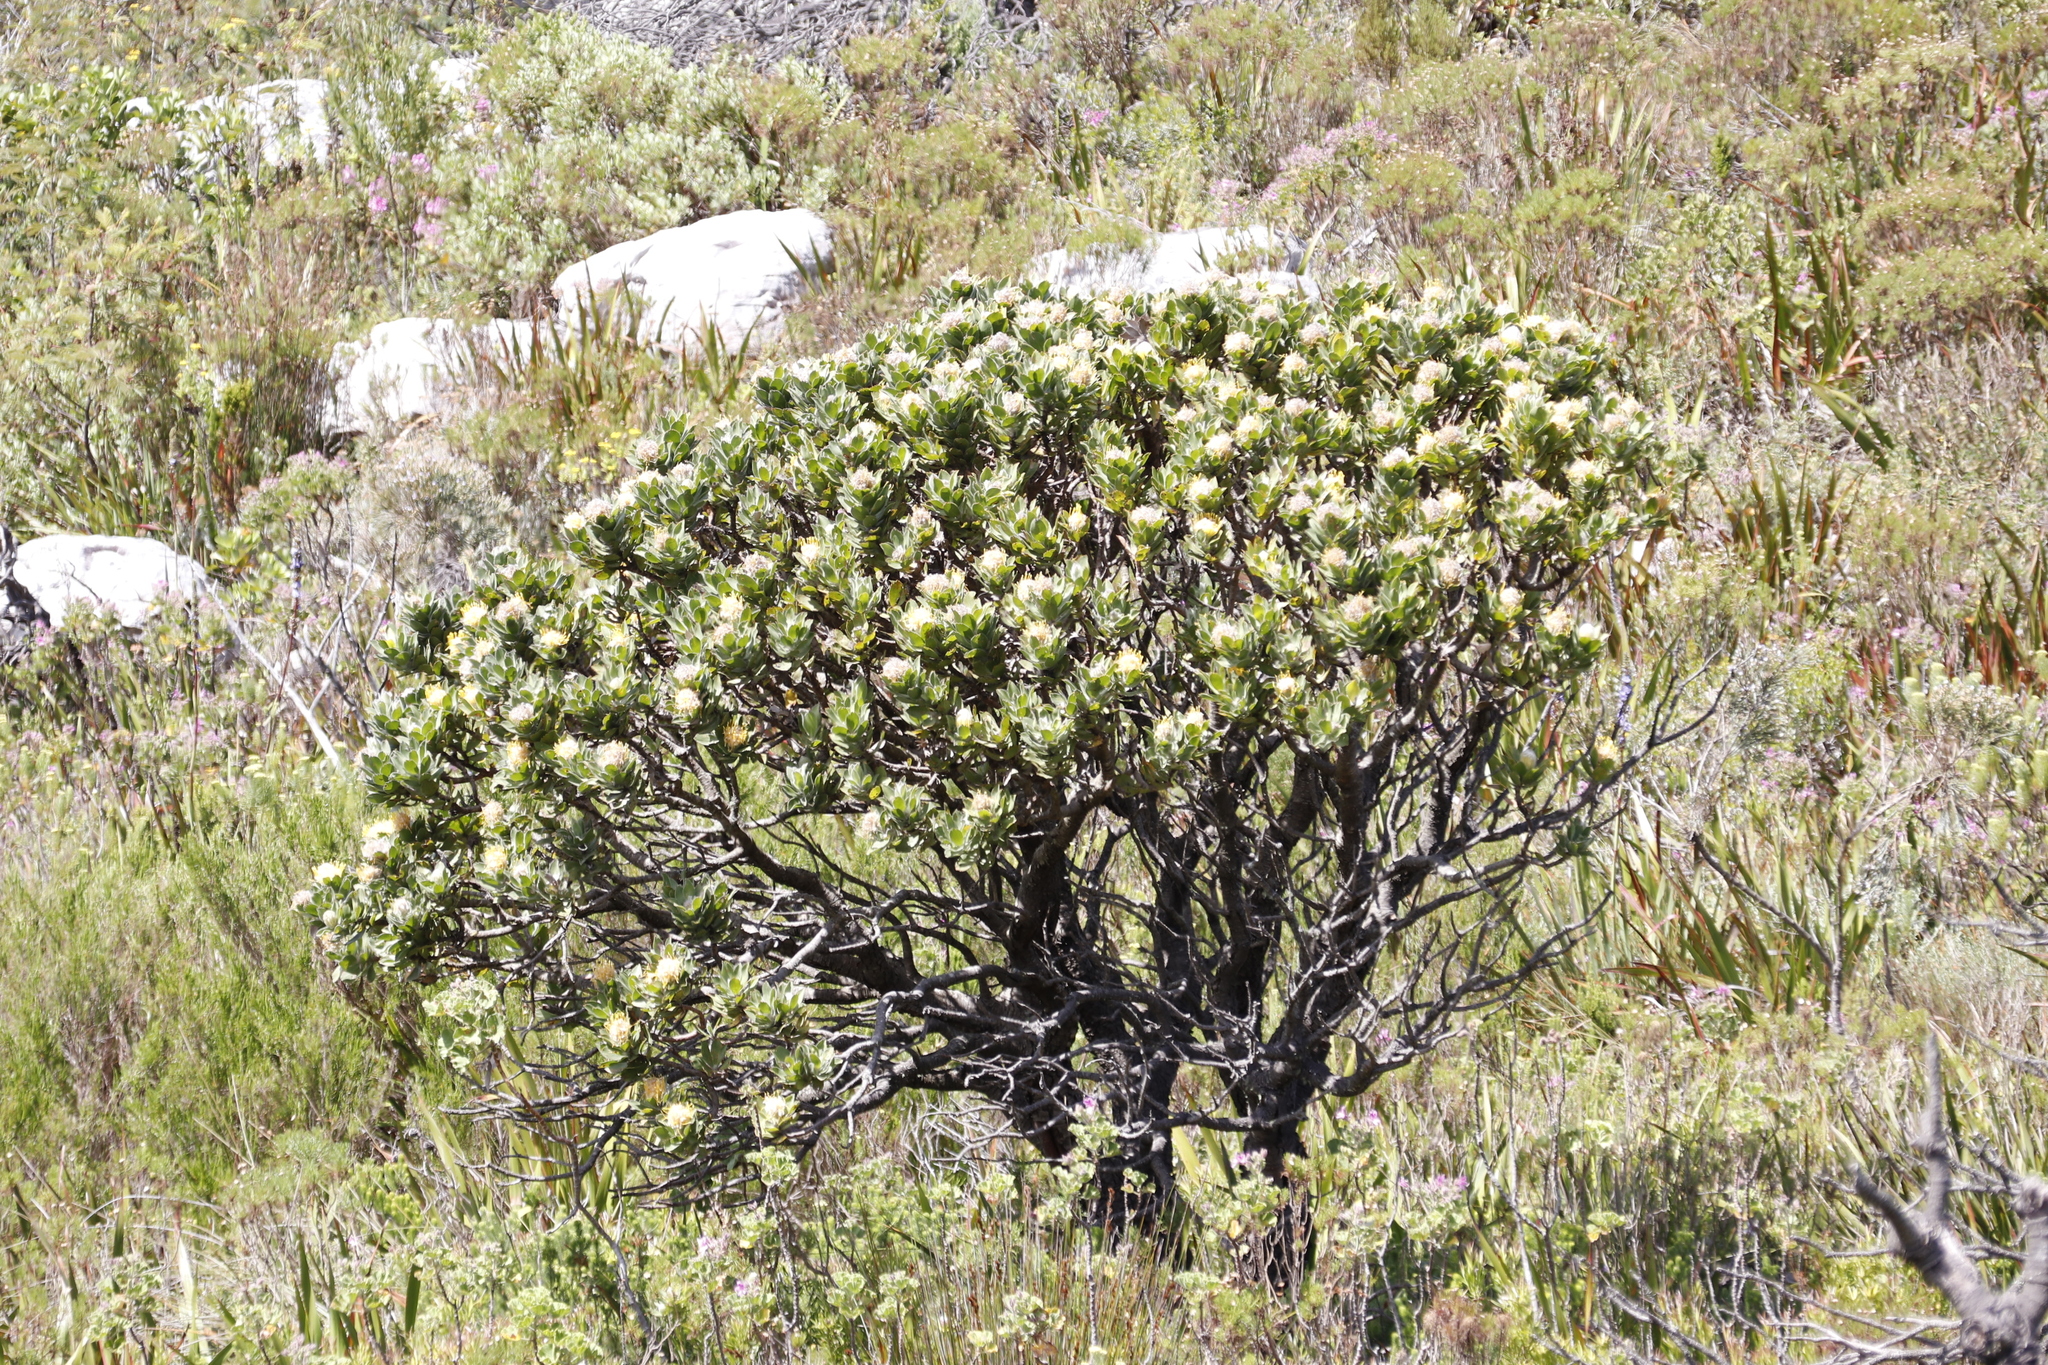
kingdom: Plantae
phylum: Tracheophyta
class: Magnoliopsida
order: Proteales
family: Proteaceae
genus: Leucospermum
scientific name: Leucospermum conocarpodendron
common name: Tree pincushion
